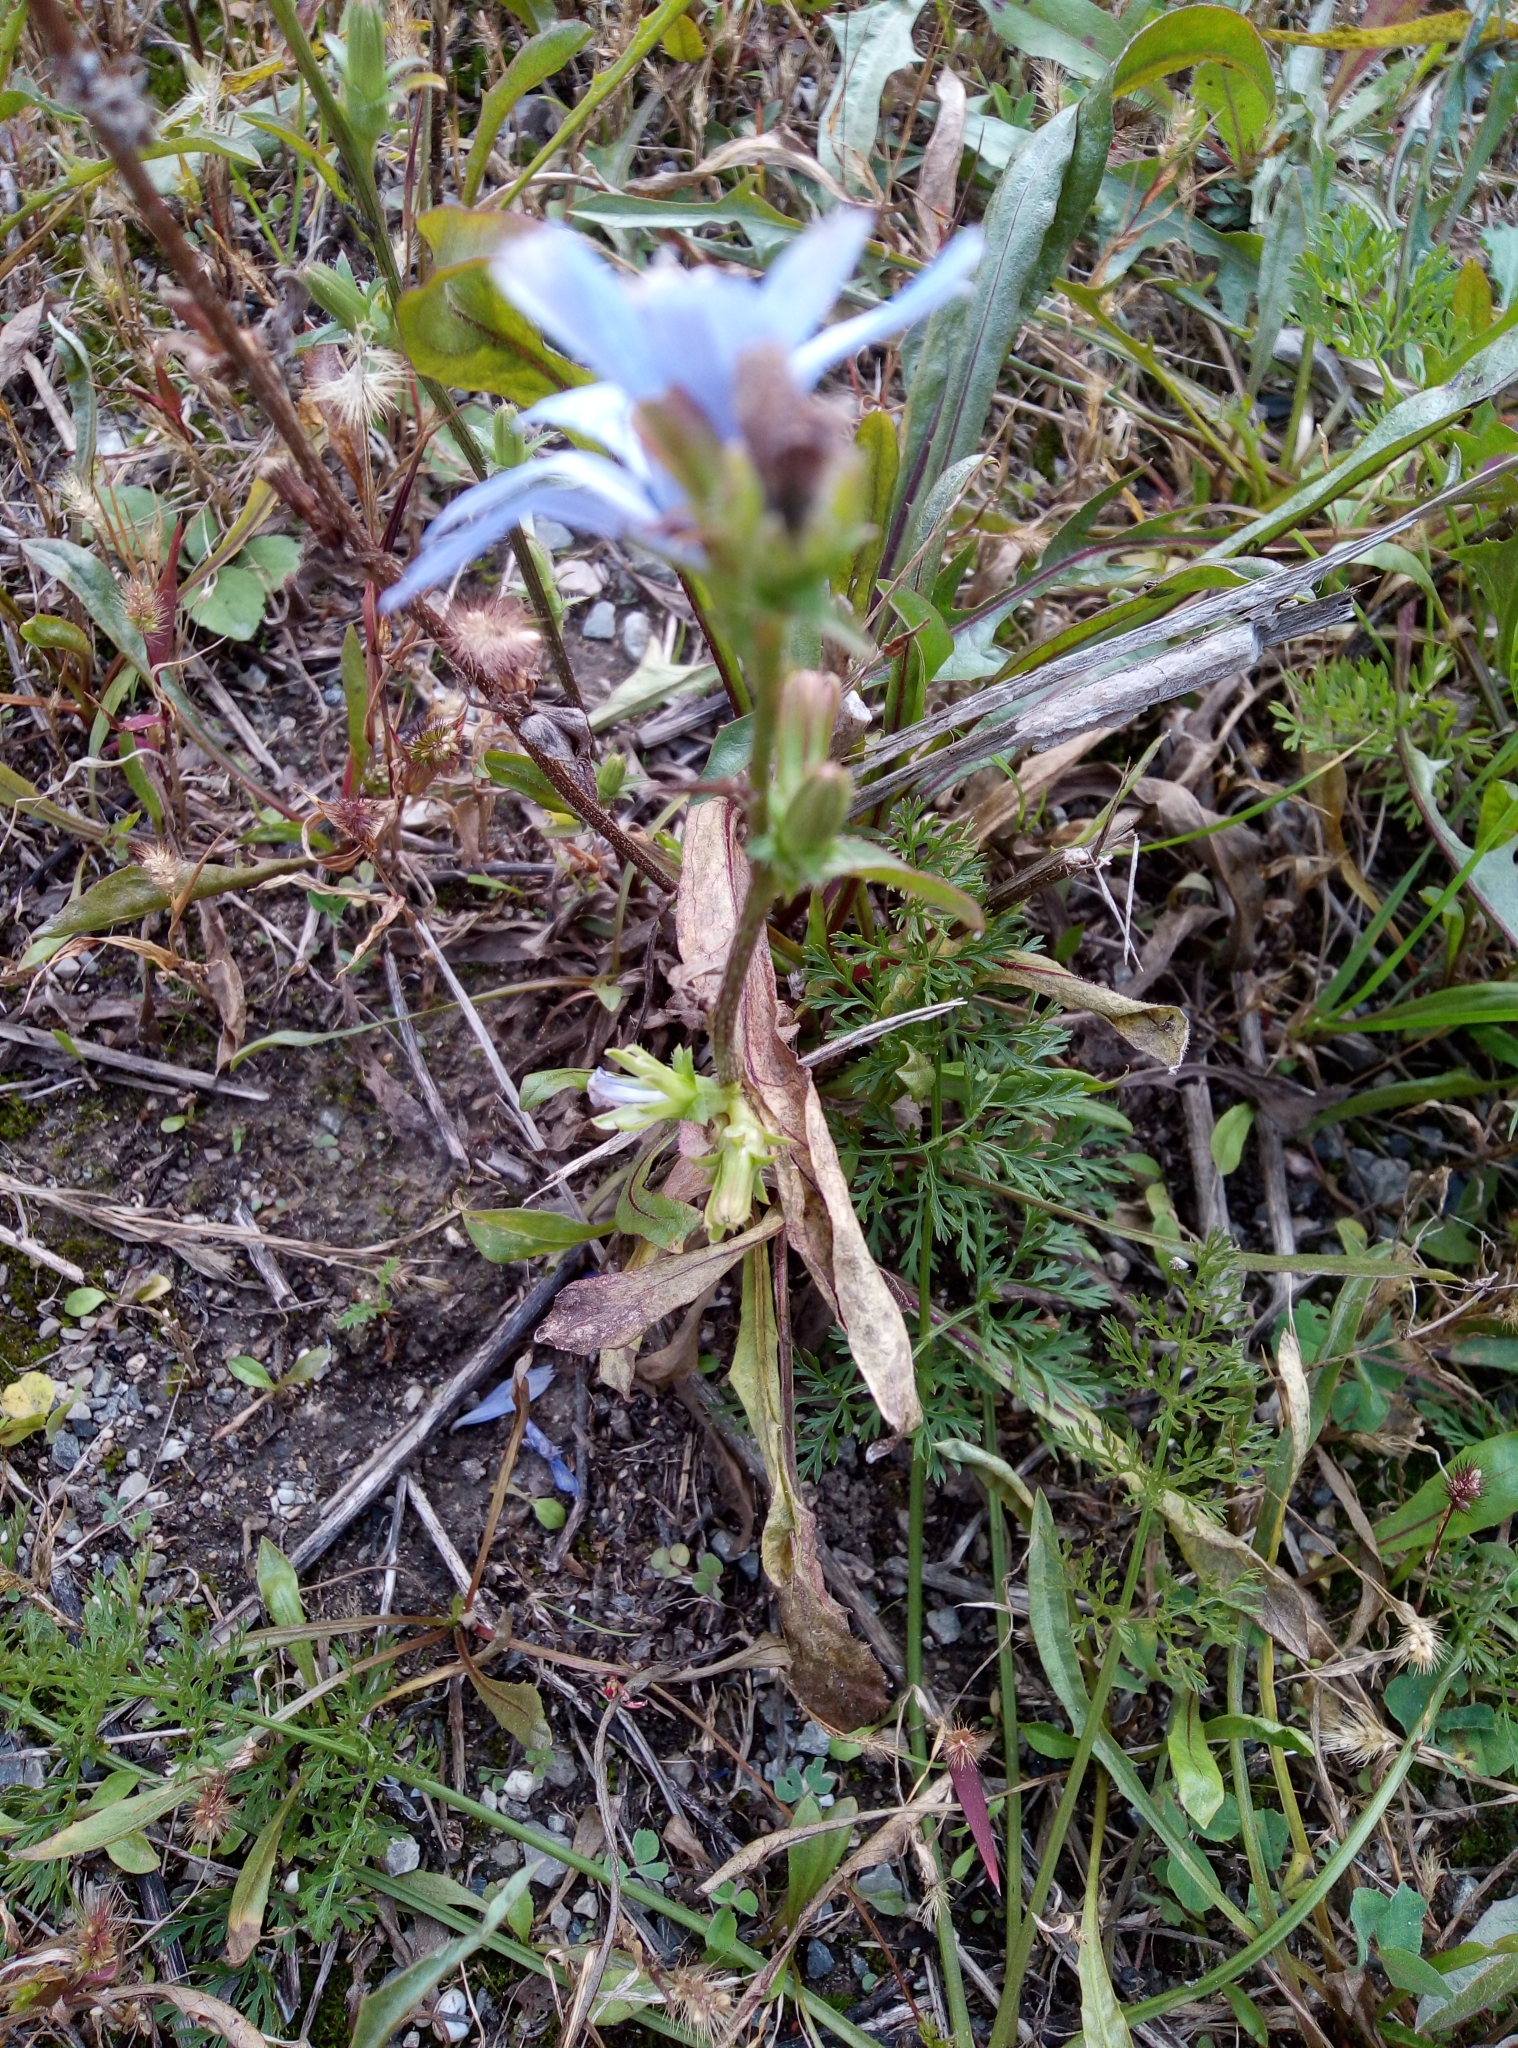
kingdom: Plantae
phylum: Tracheophyta
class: Magnoliopsida
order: Asterales
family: Asteraceae
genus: Cichorium
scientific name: Cichorium intybus
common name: Chicory
